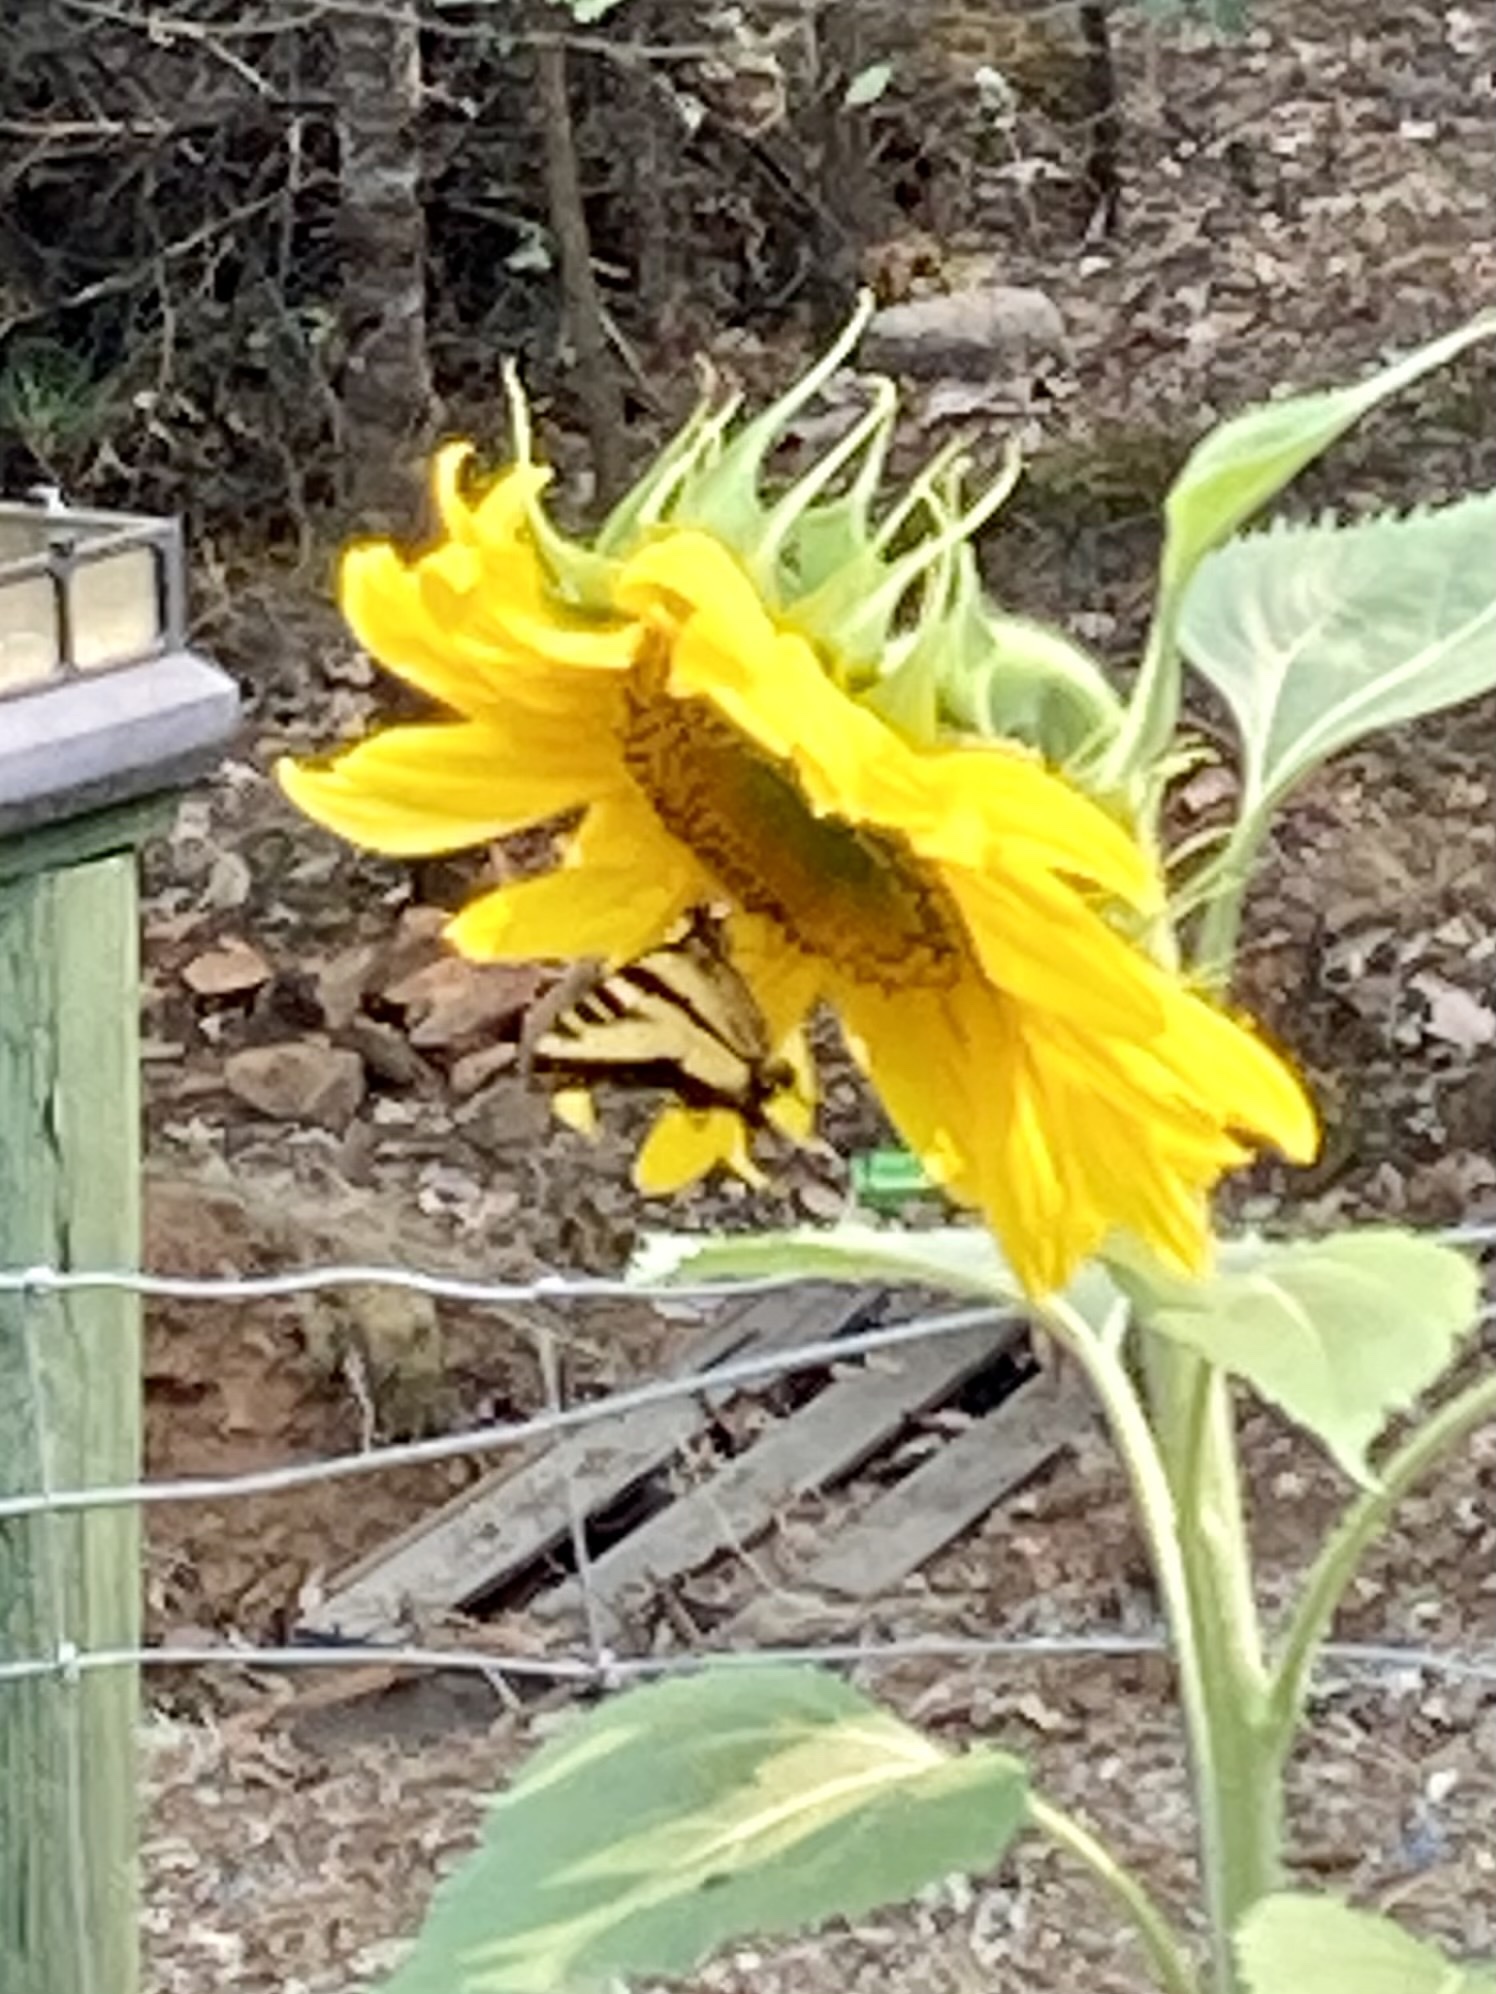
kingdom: Animalia
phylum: Arthropoda
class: Insecta
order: Lepidoptera
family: Papilionidae
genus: Papilio
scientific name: Papilio rutulus
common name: Western tiger swallowtail
